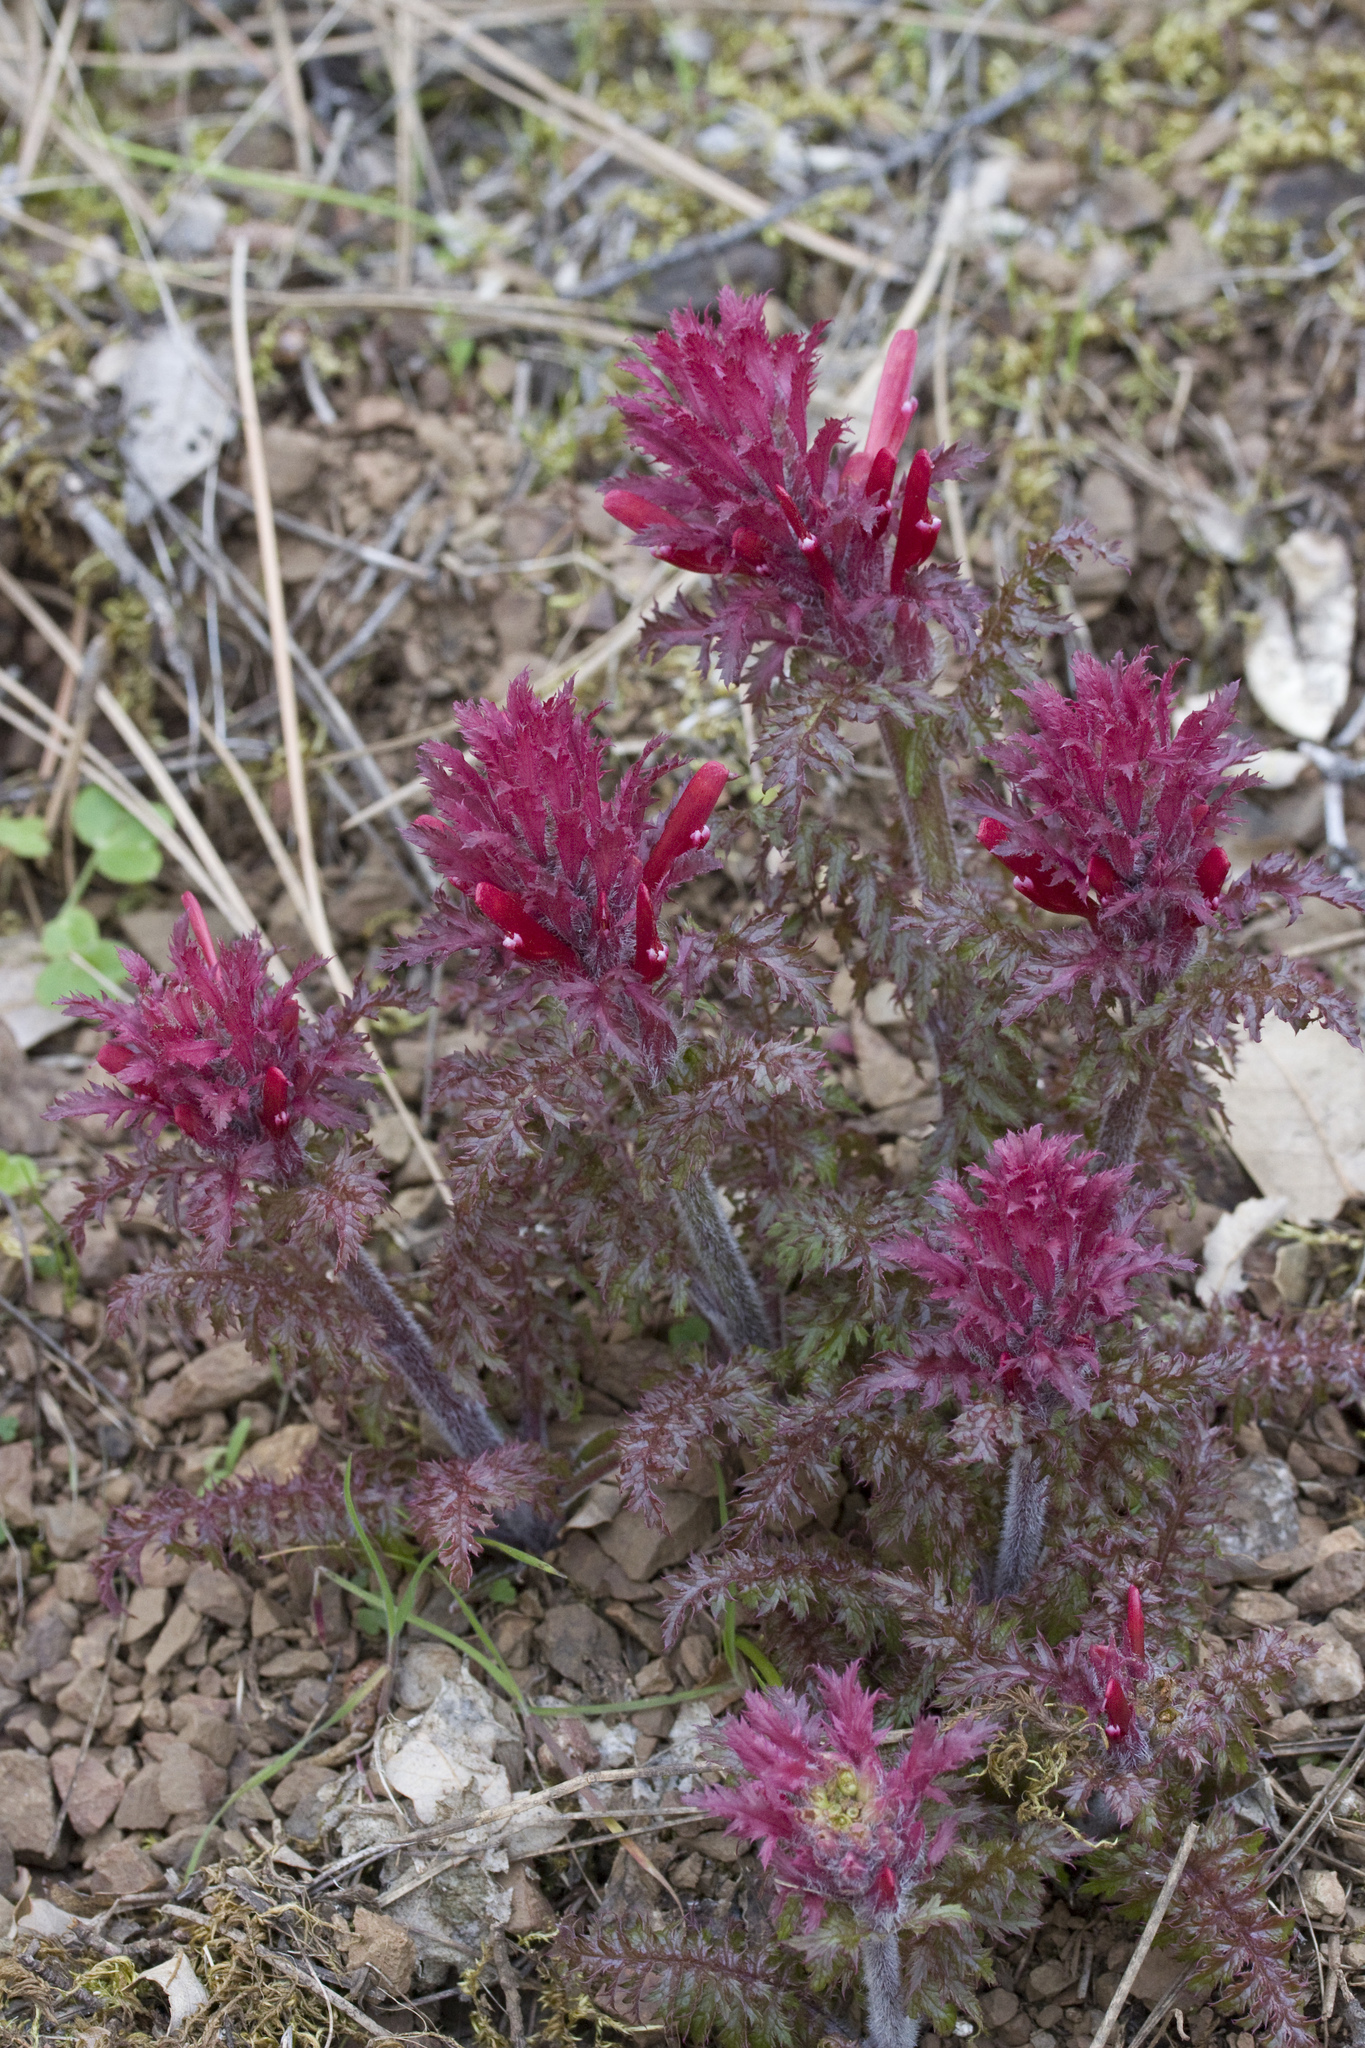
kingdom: Plantae
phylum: Tracheophyta
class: Magnoliopsida
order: Lamiales
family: Orobanchaceae
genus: Pedicularis
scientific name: Pedicularis densiflora
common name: Indian warrior
